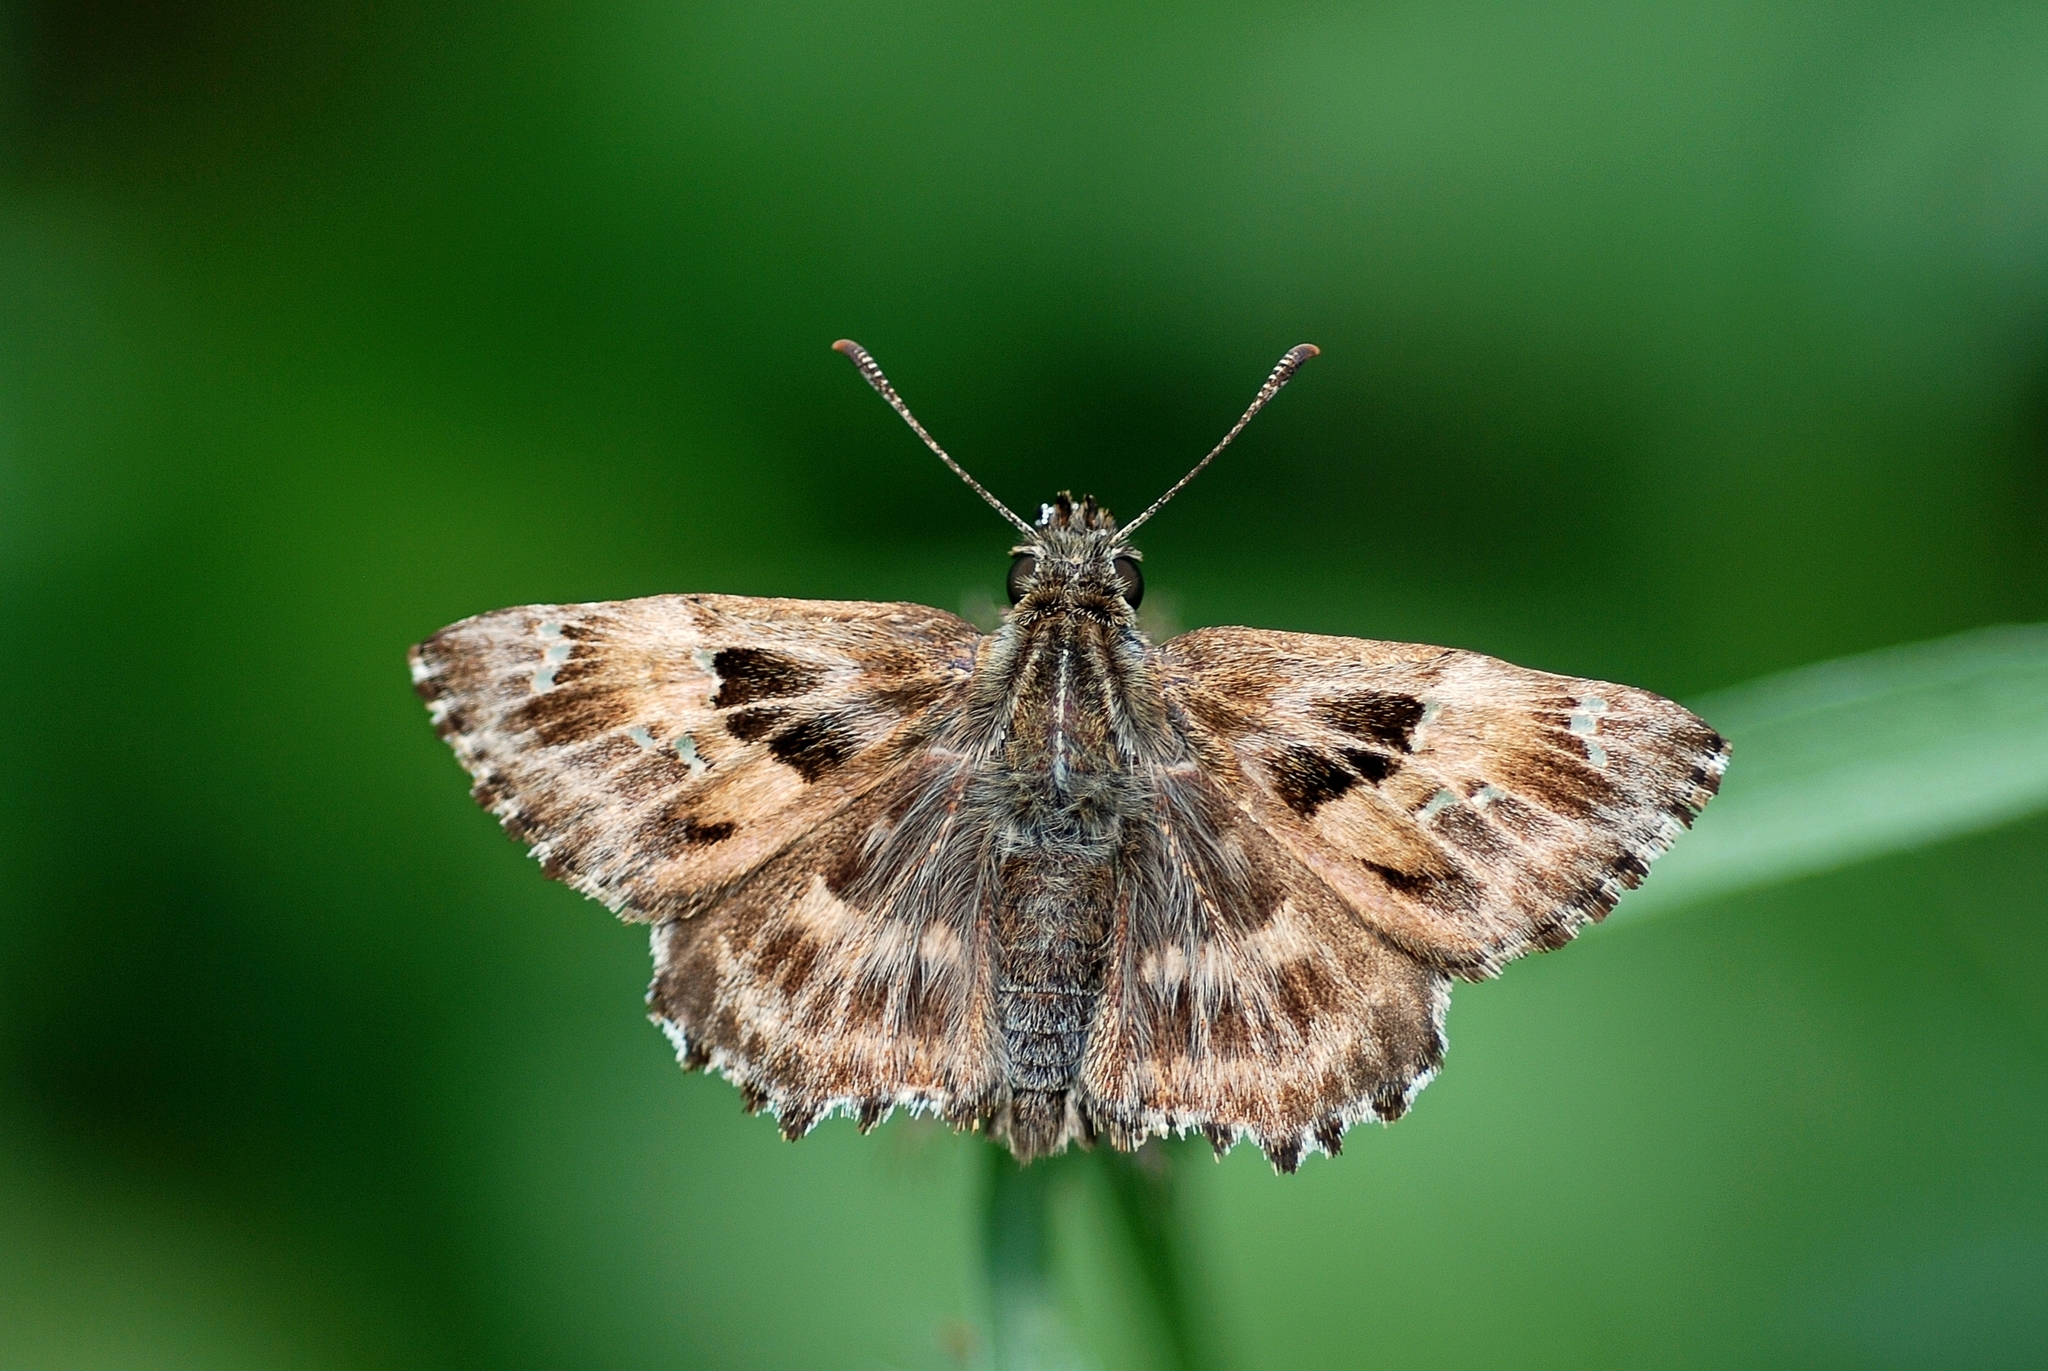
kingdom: Animalia
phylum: Arthropoda
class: Insecta
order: Lepidoptera
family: Hesperiidae
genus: Carcharodus
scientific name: Carcharodus alceae
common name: Mallow skipper
